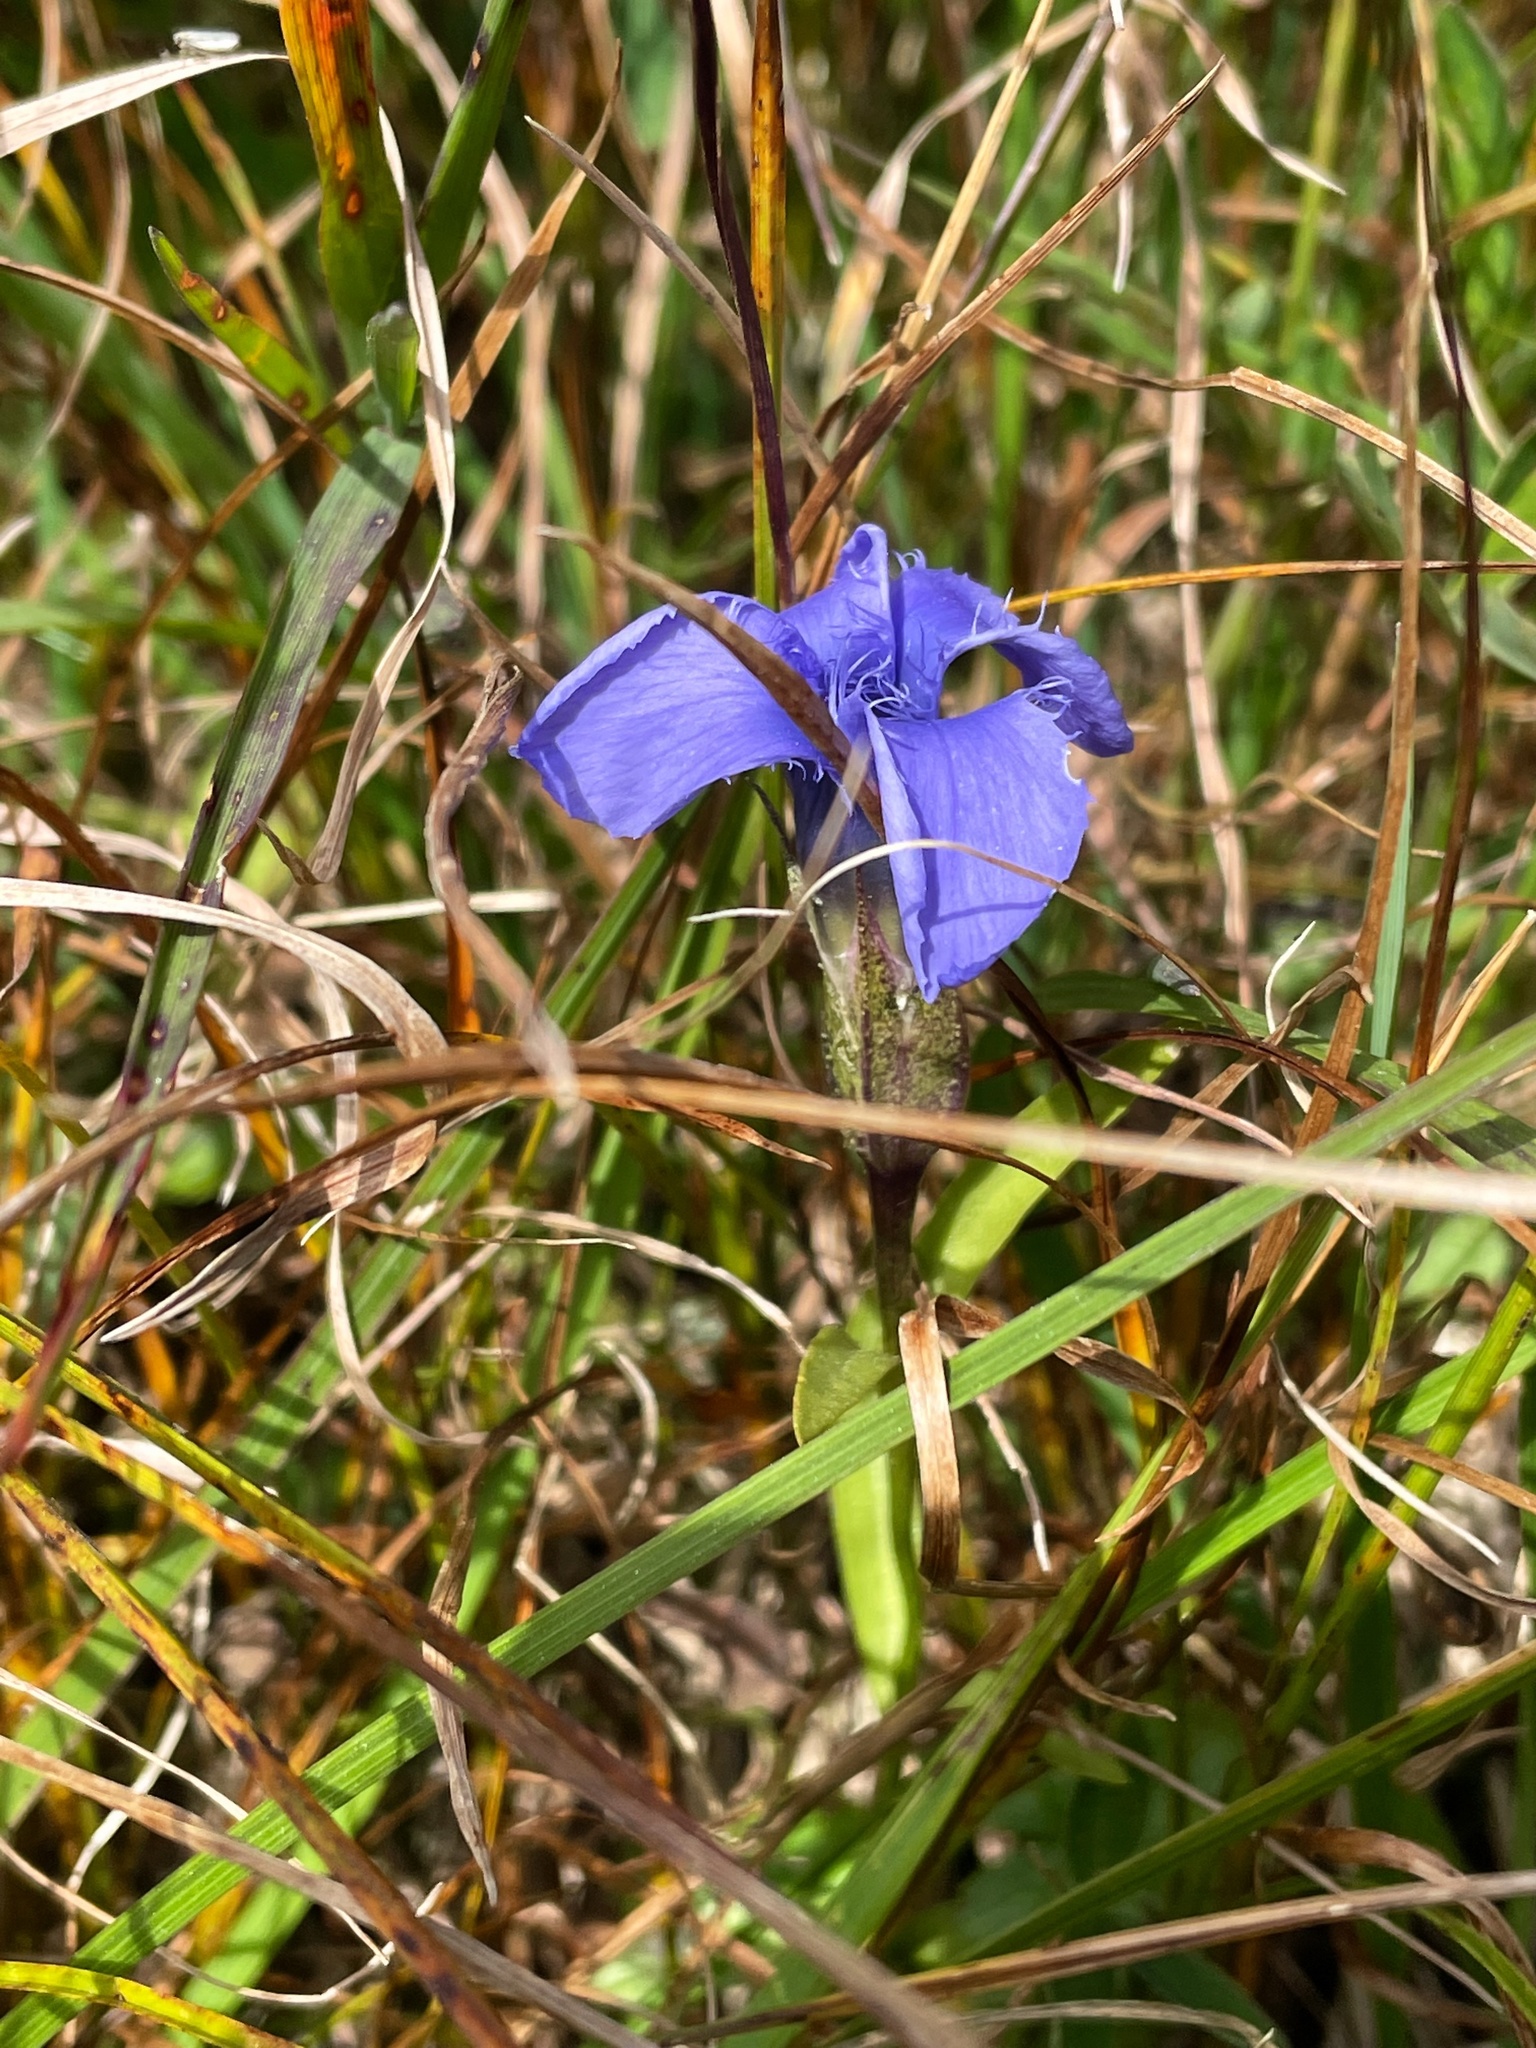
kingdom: Plantae
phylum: Tracheophyta
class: Magnoliopsida
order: Gentianales
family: Gentianaceae
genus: Gentianopsis
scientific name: Gentianopsis ciliata
